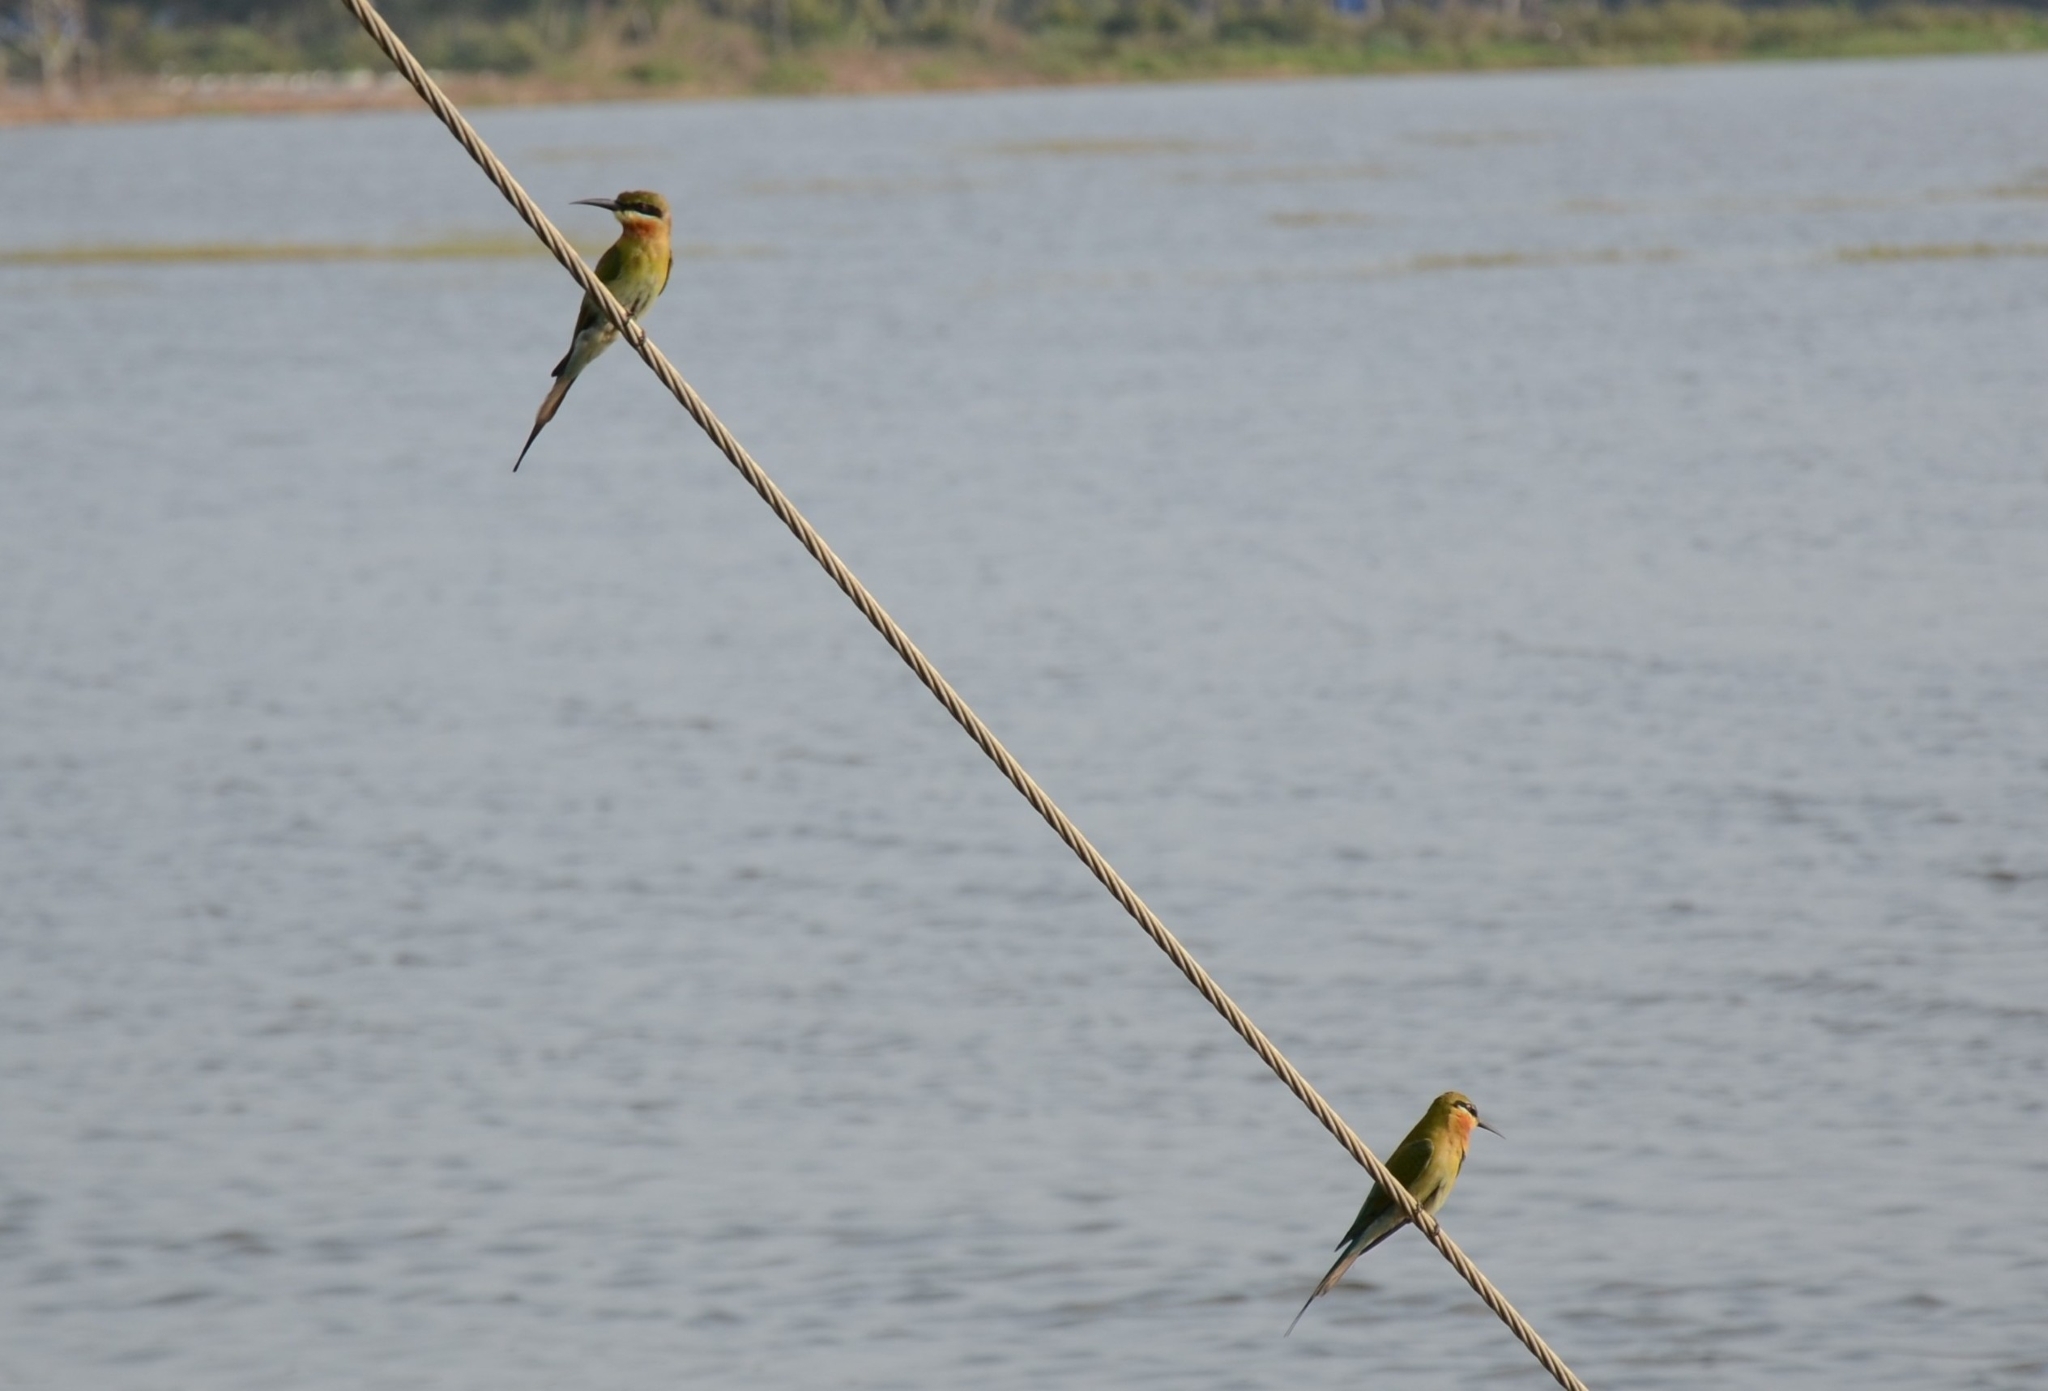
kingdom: Animalia
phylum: Chordata
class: Aves
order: Coraciiformes
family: Meropidae
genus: Merops
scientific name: Merops philippinus
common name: Blue-tailed bee-eater
